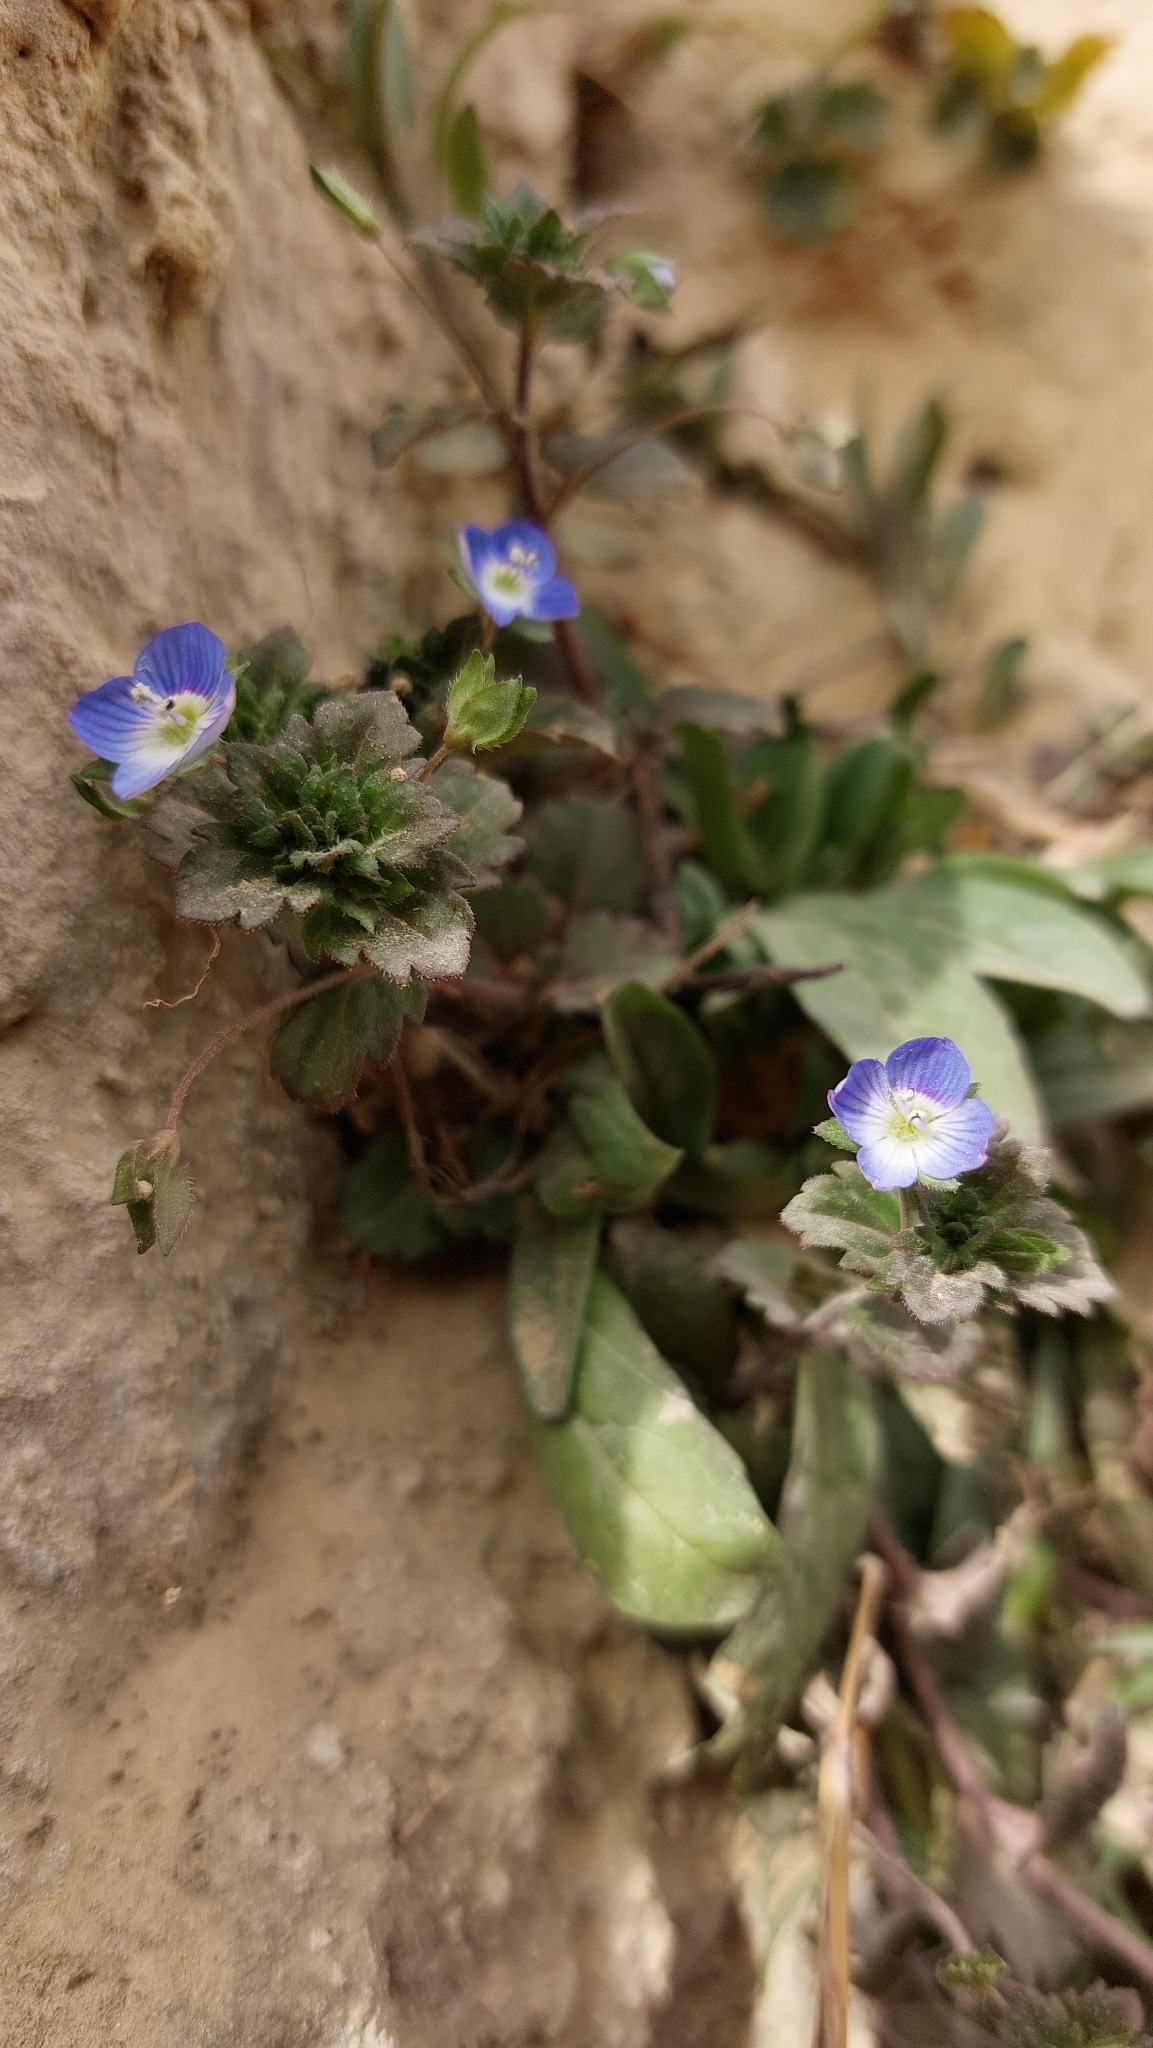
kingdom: Plantae
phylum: Tracheophyta
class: Magnoliopsida
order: Lamiales
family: Plantaginaceae
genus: Veronica
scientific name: Veronica persica
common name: Common field-speedwell
